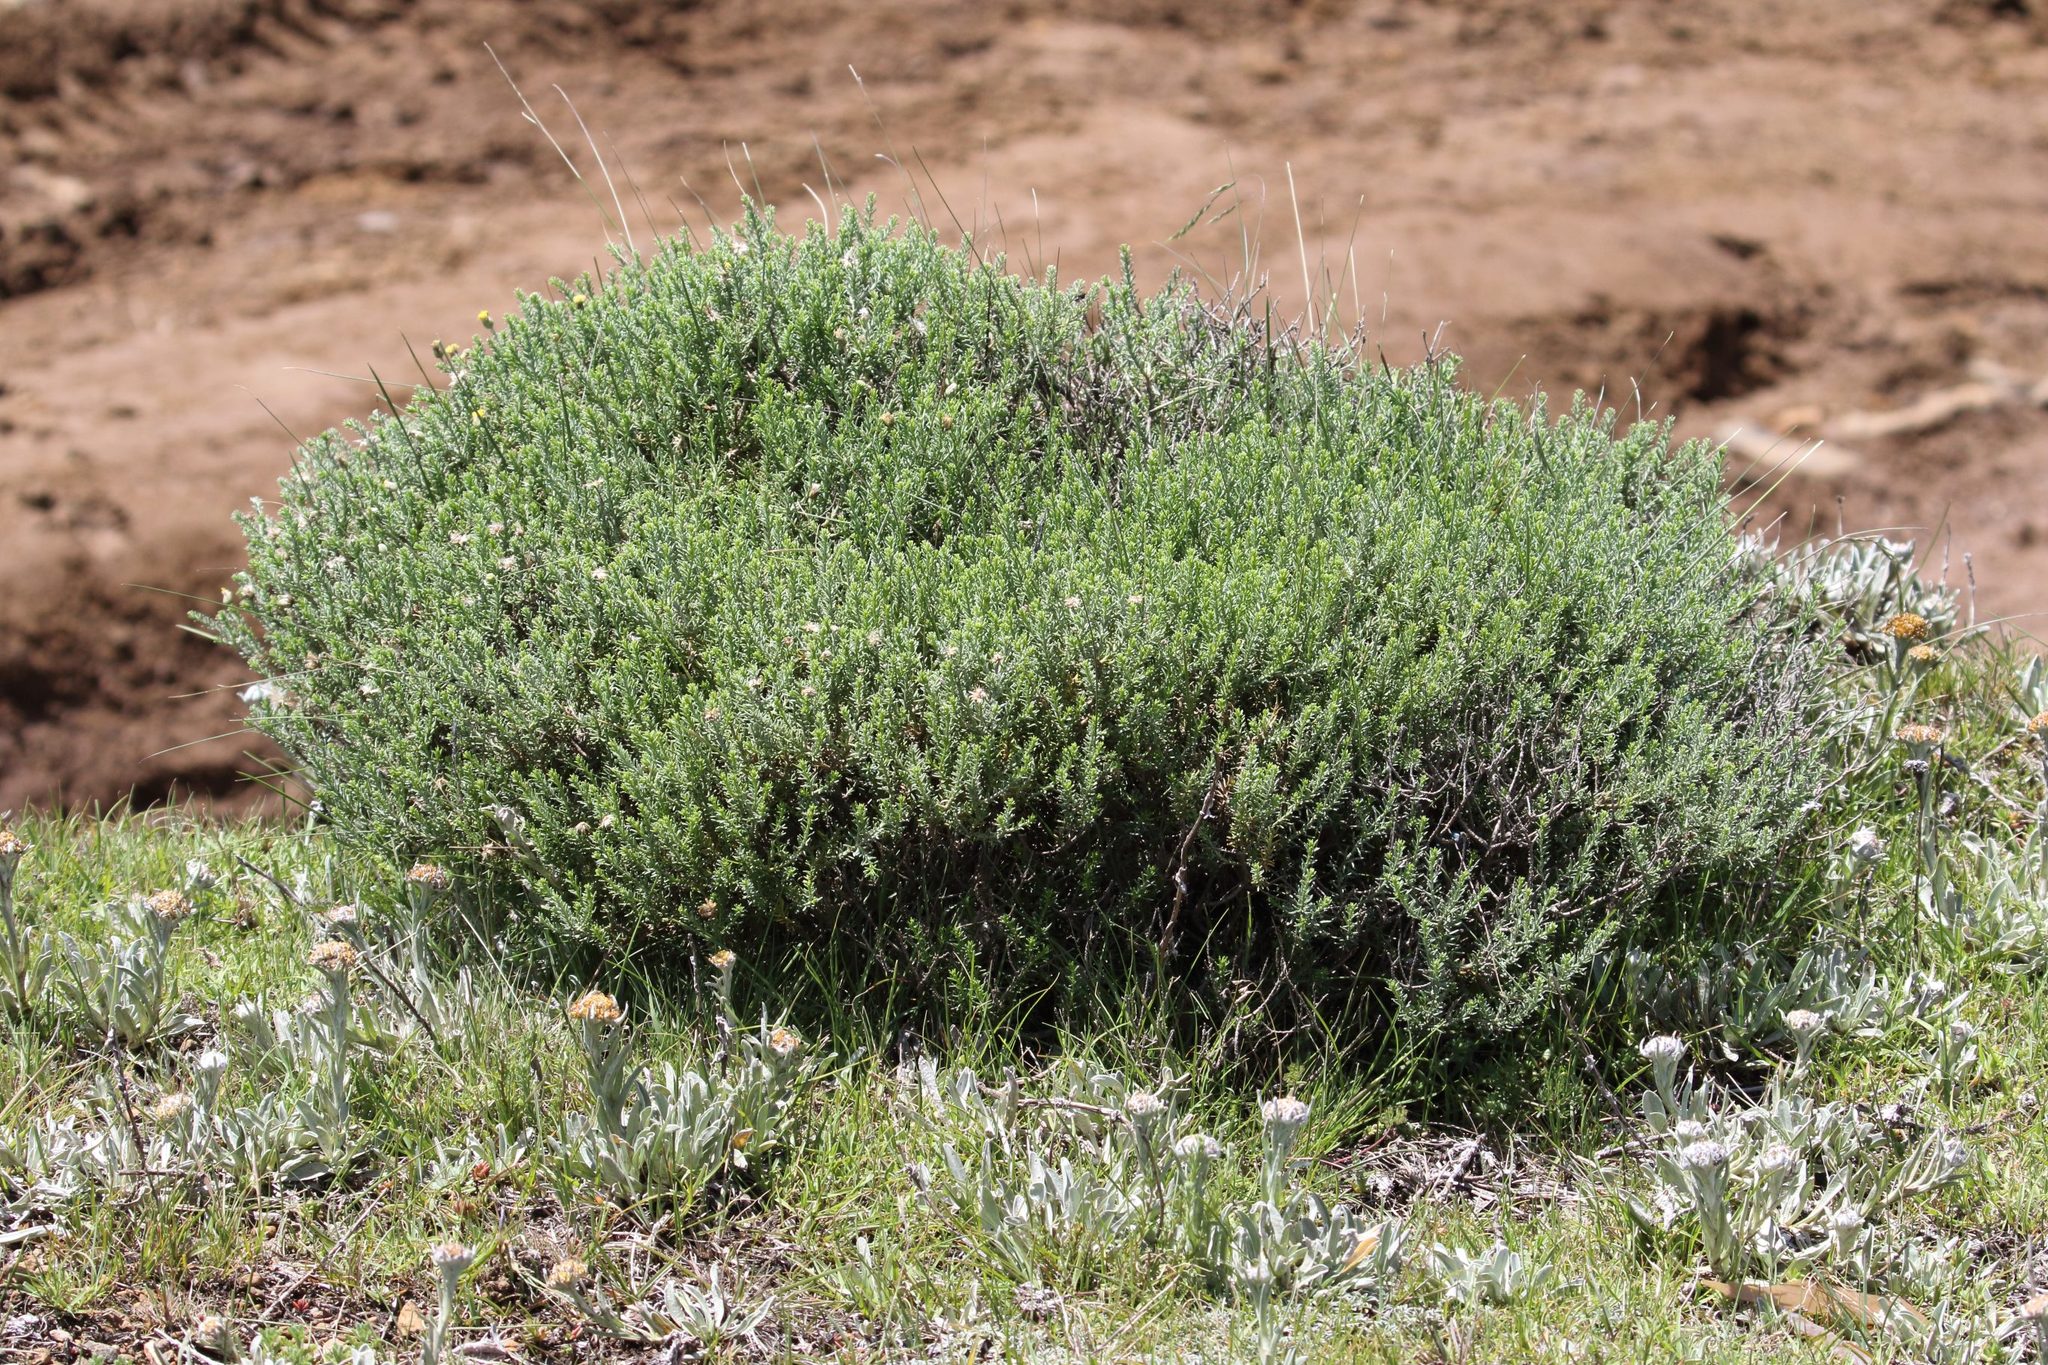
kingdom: Plantae
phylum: Tracheophyta
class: Magnoliopsida
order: Asterales
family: Asteraceae
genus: Chrysocoma
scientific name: Chrysocoma ciliata
